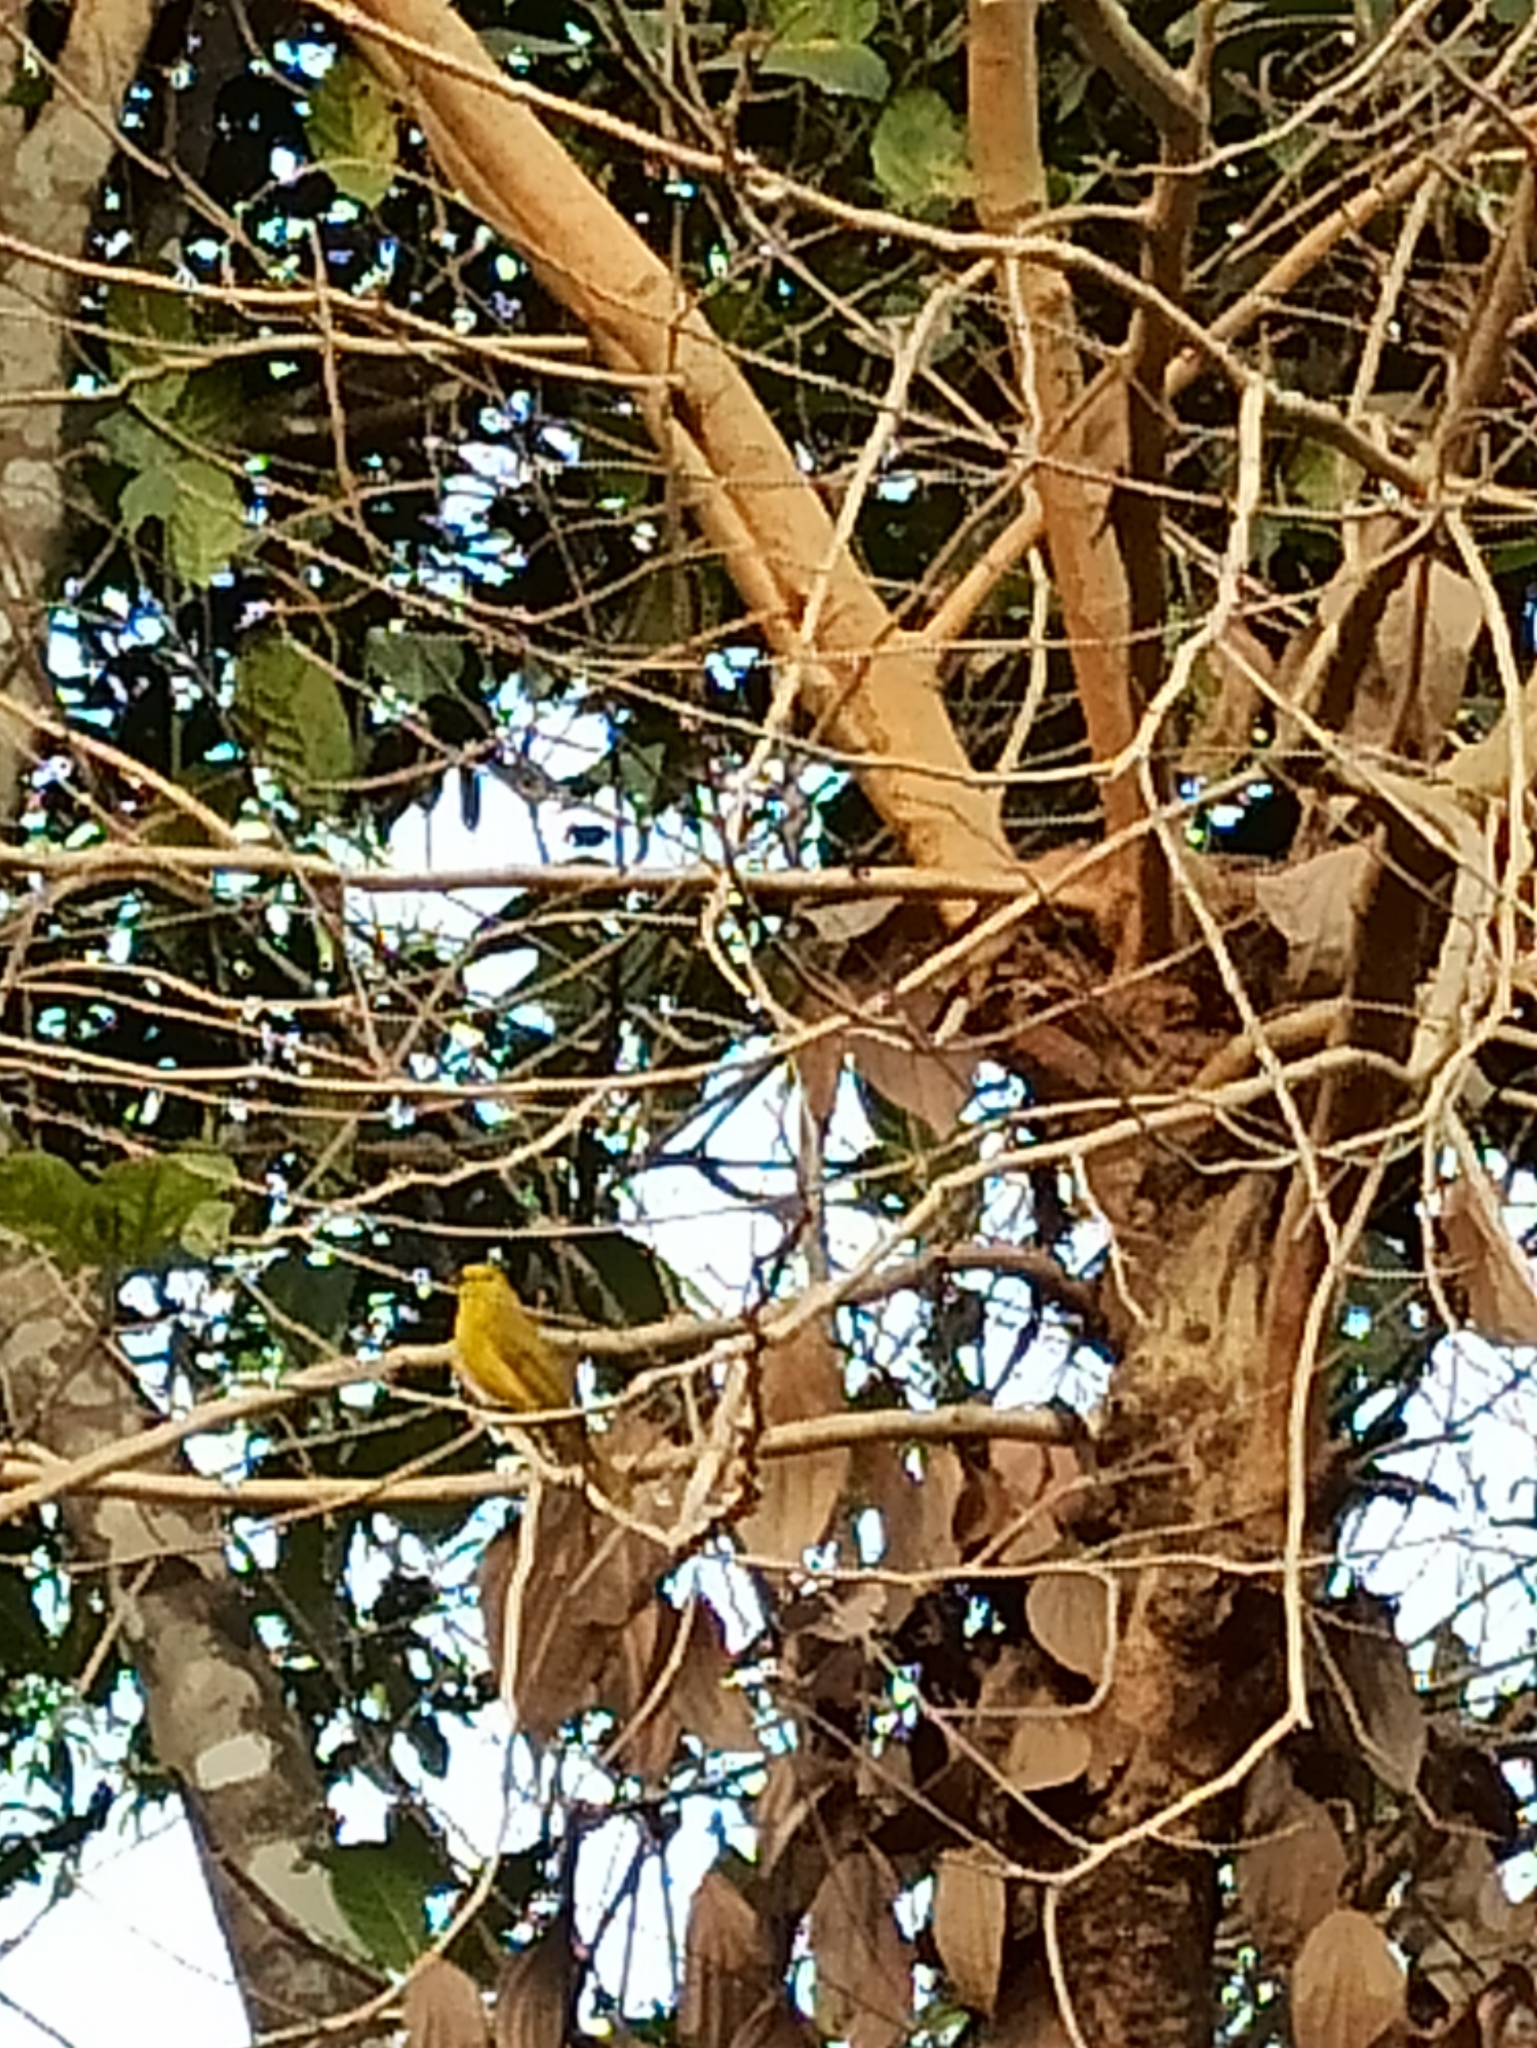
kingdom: Animalia
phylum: Chordata
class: Aves
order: Passeriformes
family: Pycnonotidae
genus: Acritillas
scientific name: Acritillas indica
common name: Yellow-browed bulbul
